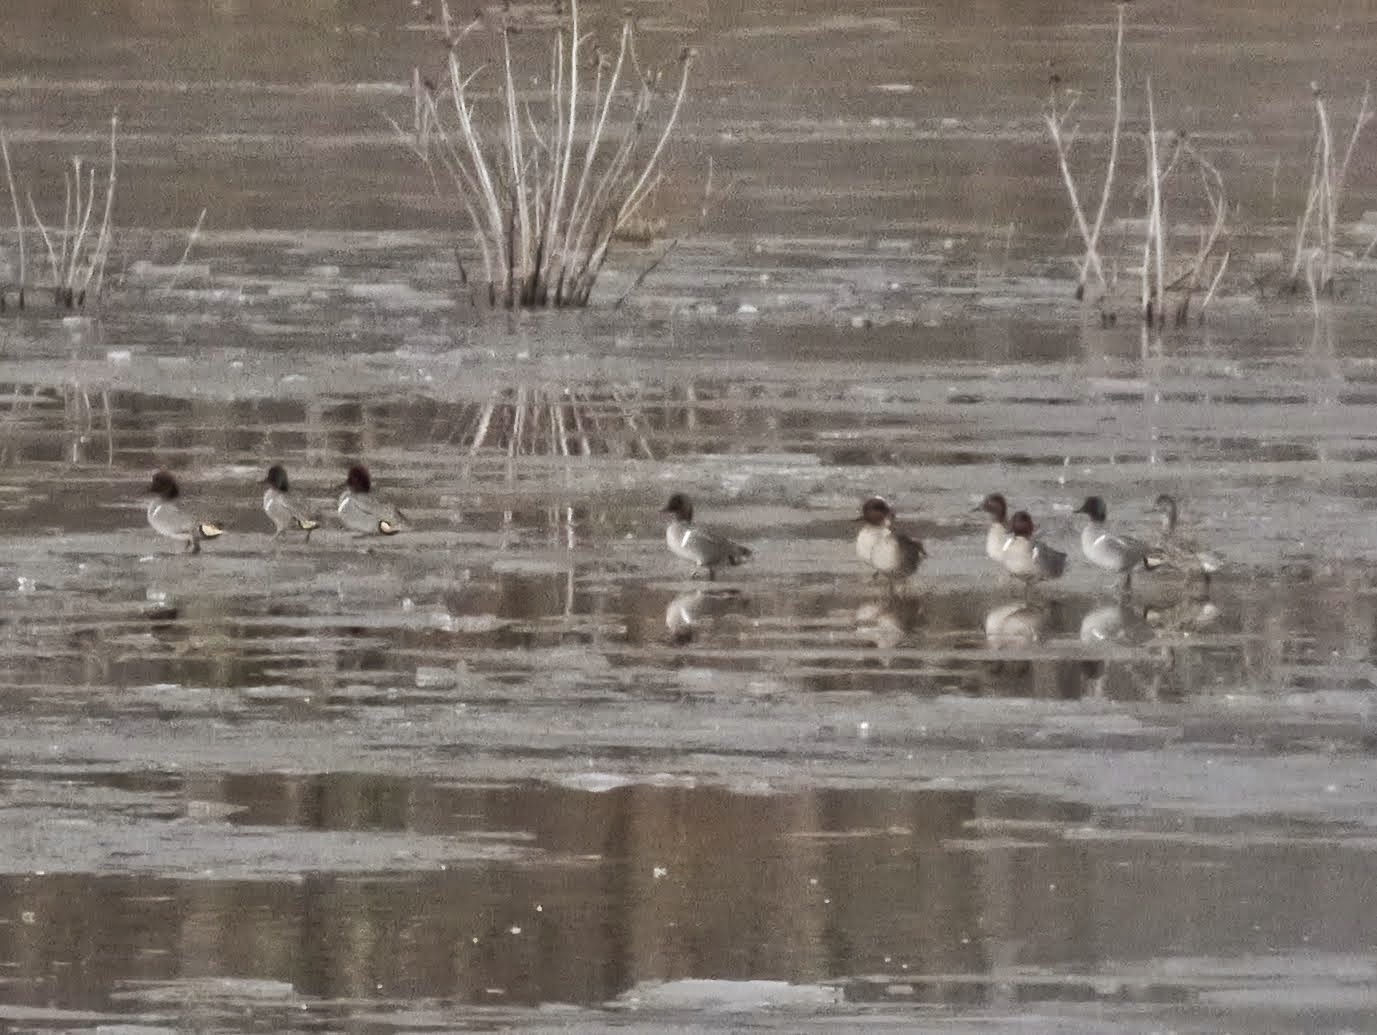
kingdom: Animalia
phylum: Chordata
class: Aves
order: Anseriformes
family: Anatidae
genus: Anas
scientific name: Anas crecca
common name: Eurasian teal
